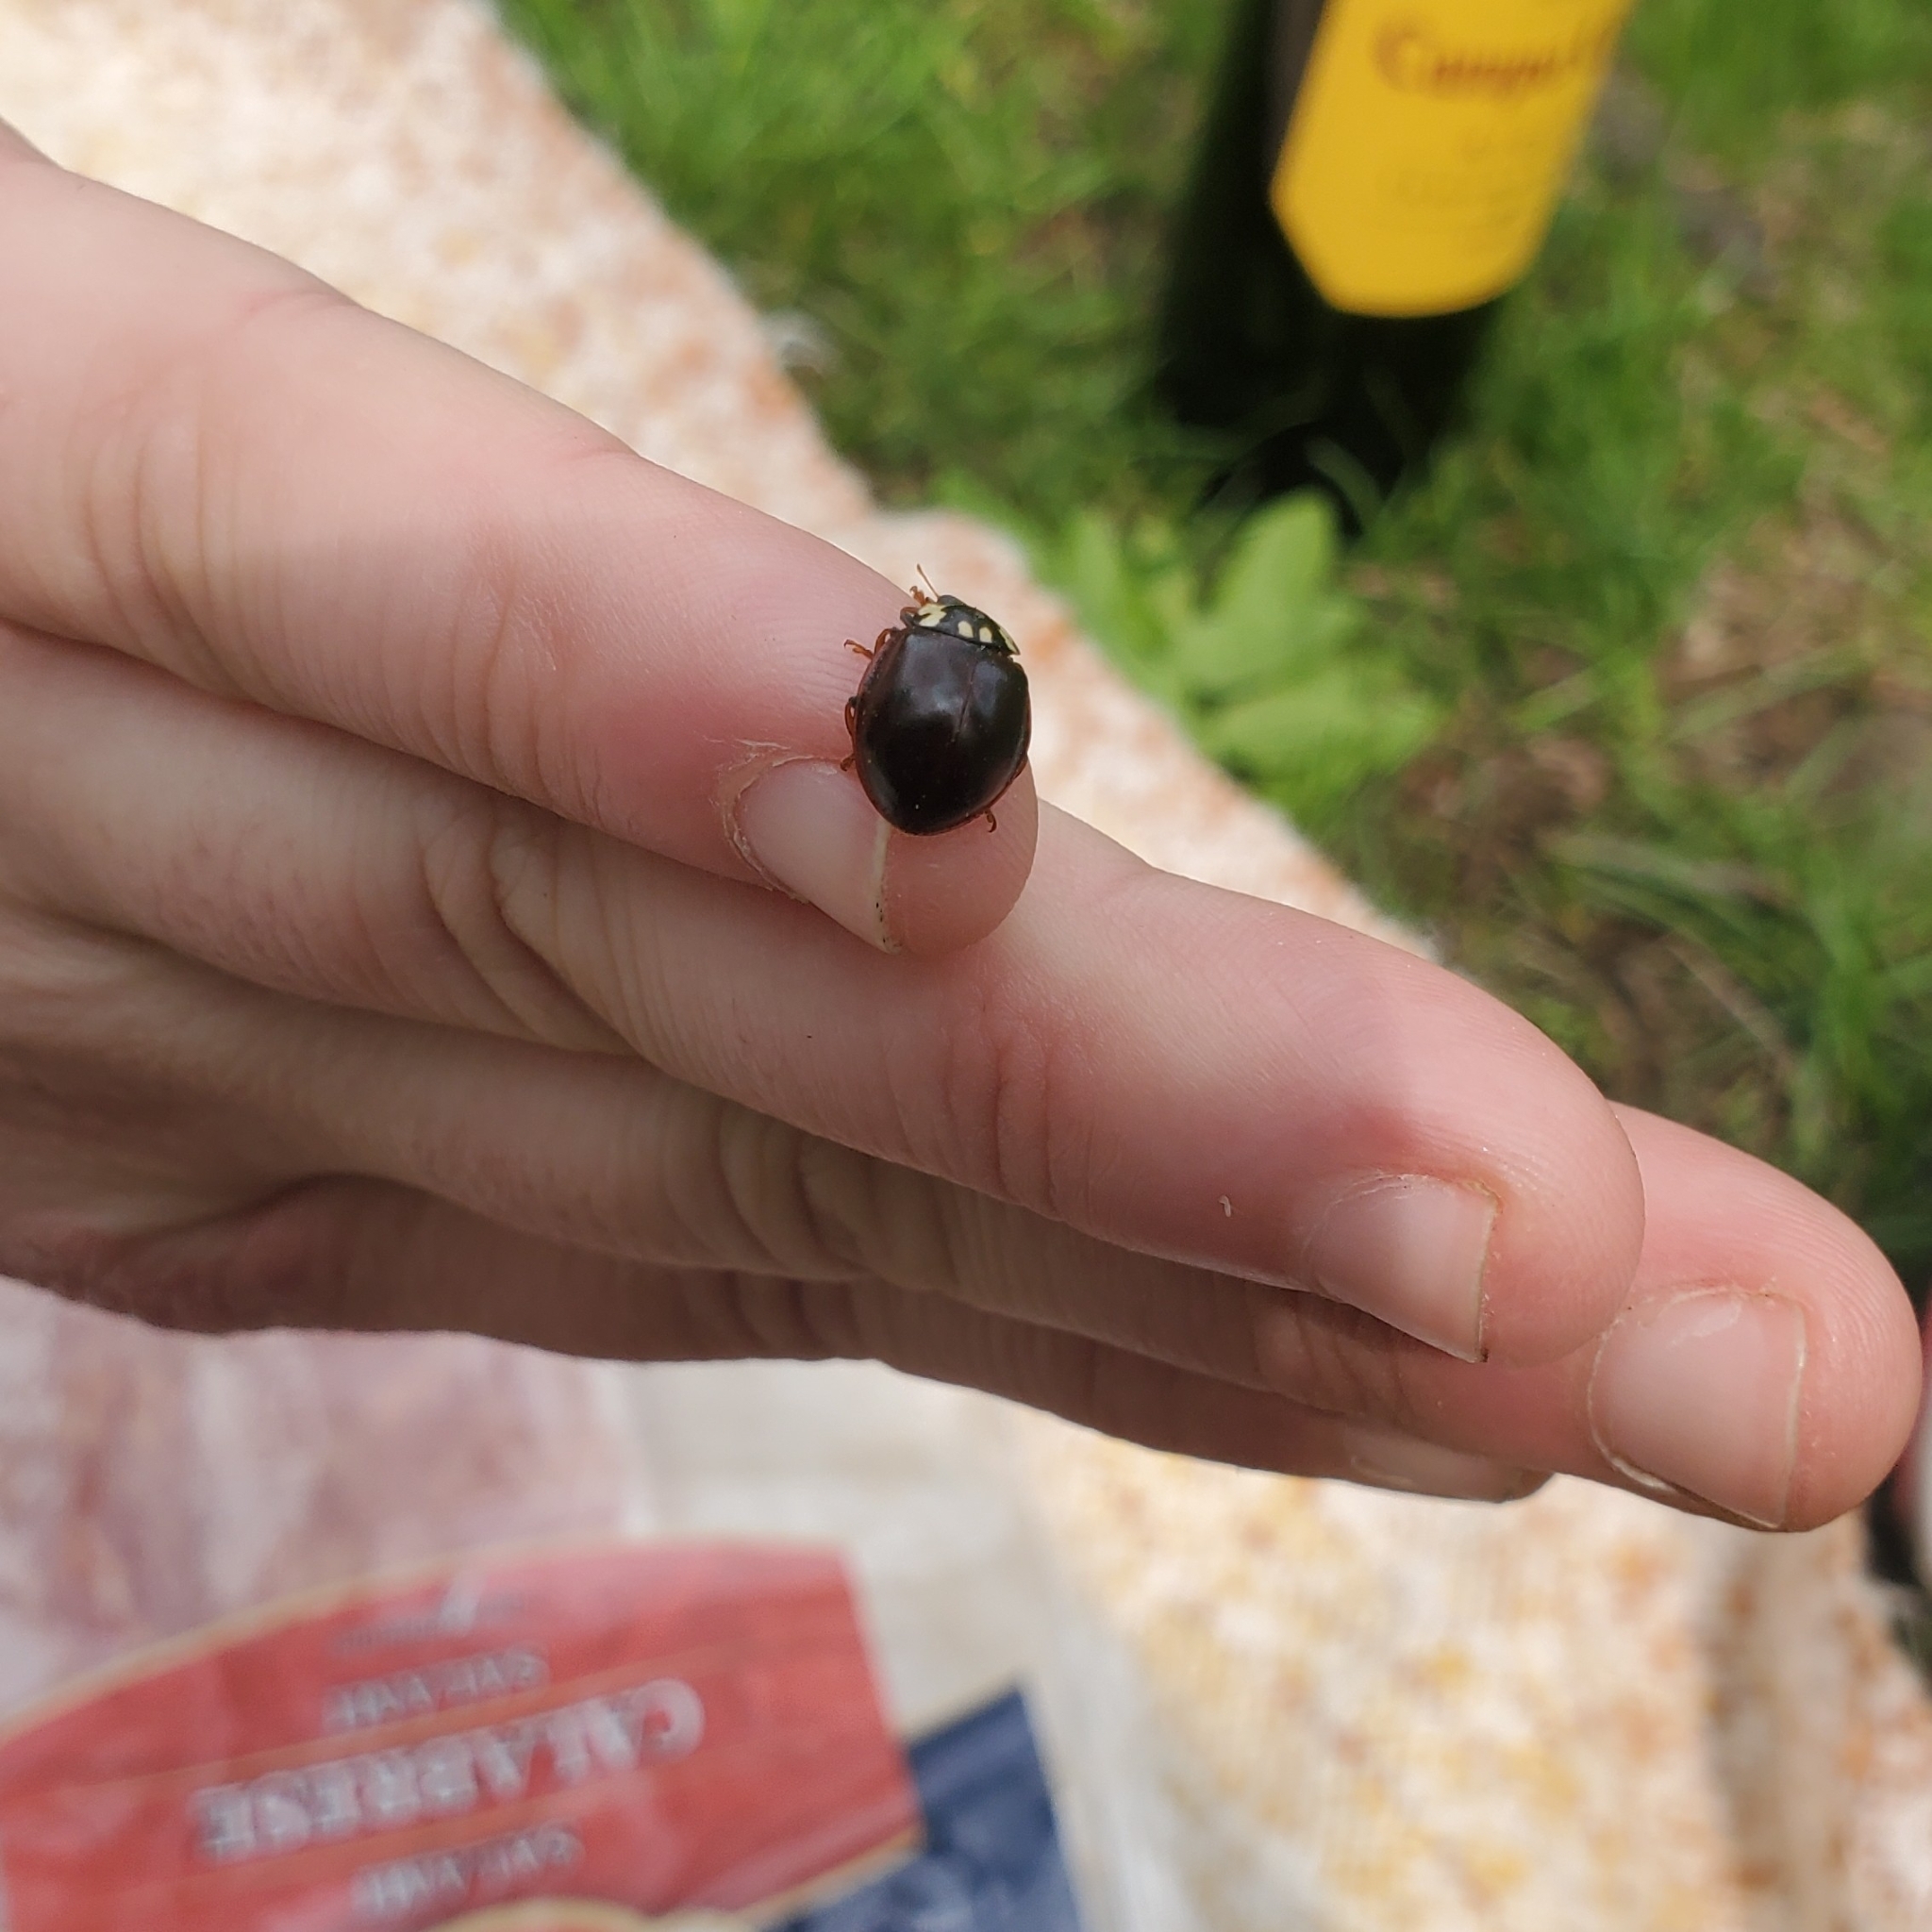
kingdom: Animalia
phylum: Arthropoda
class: Insecta
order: Coleoptera
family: Coccinellidae
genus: Anatis
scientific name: Anatis labiculata
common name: Fifteen-spotted lady beetle
